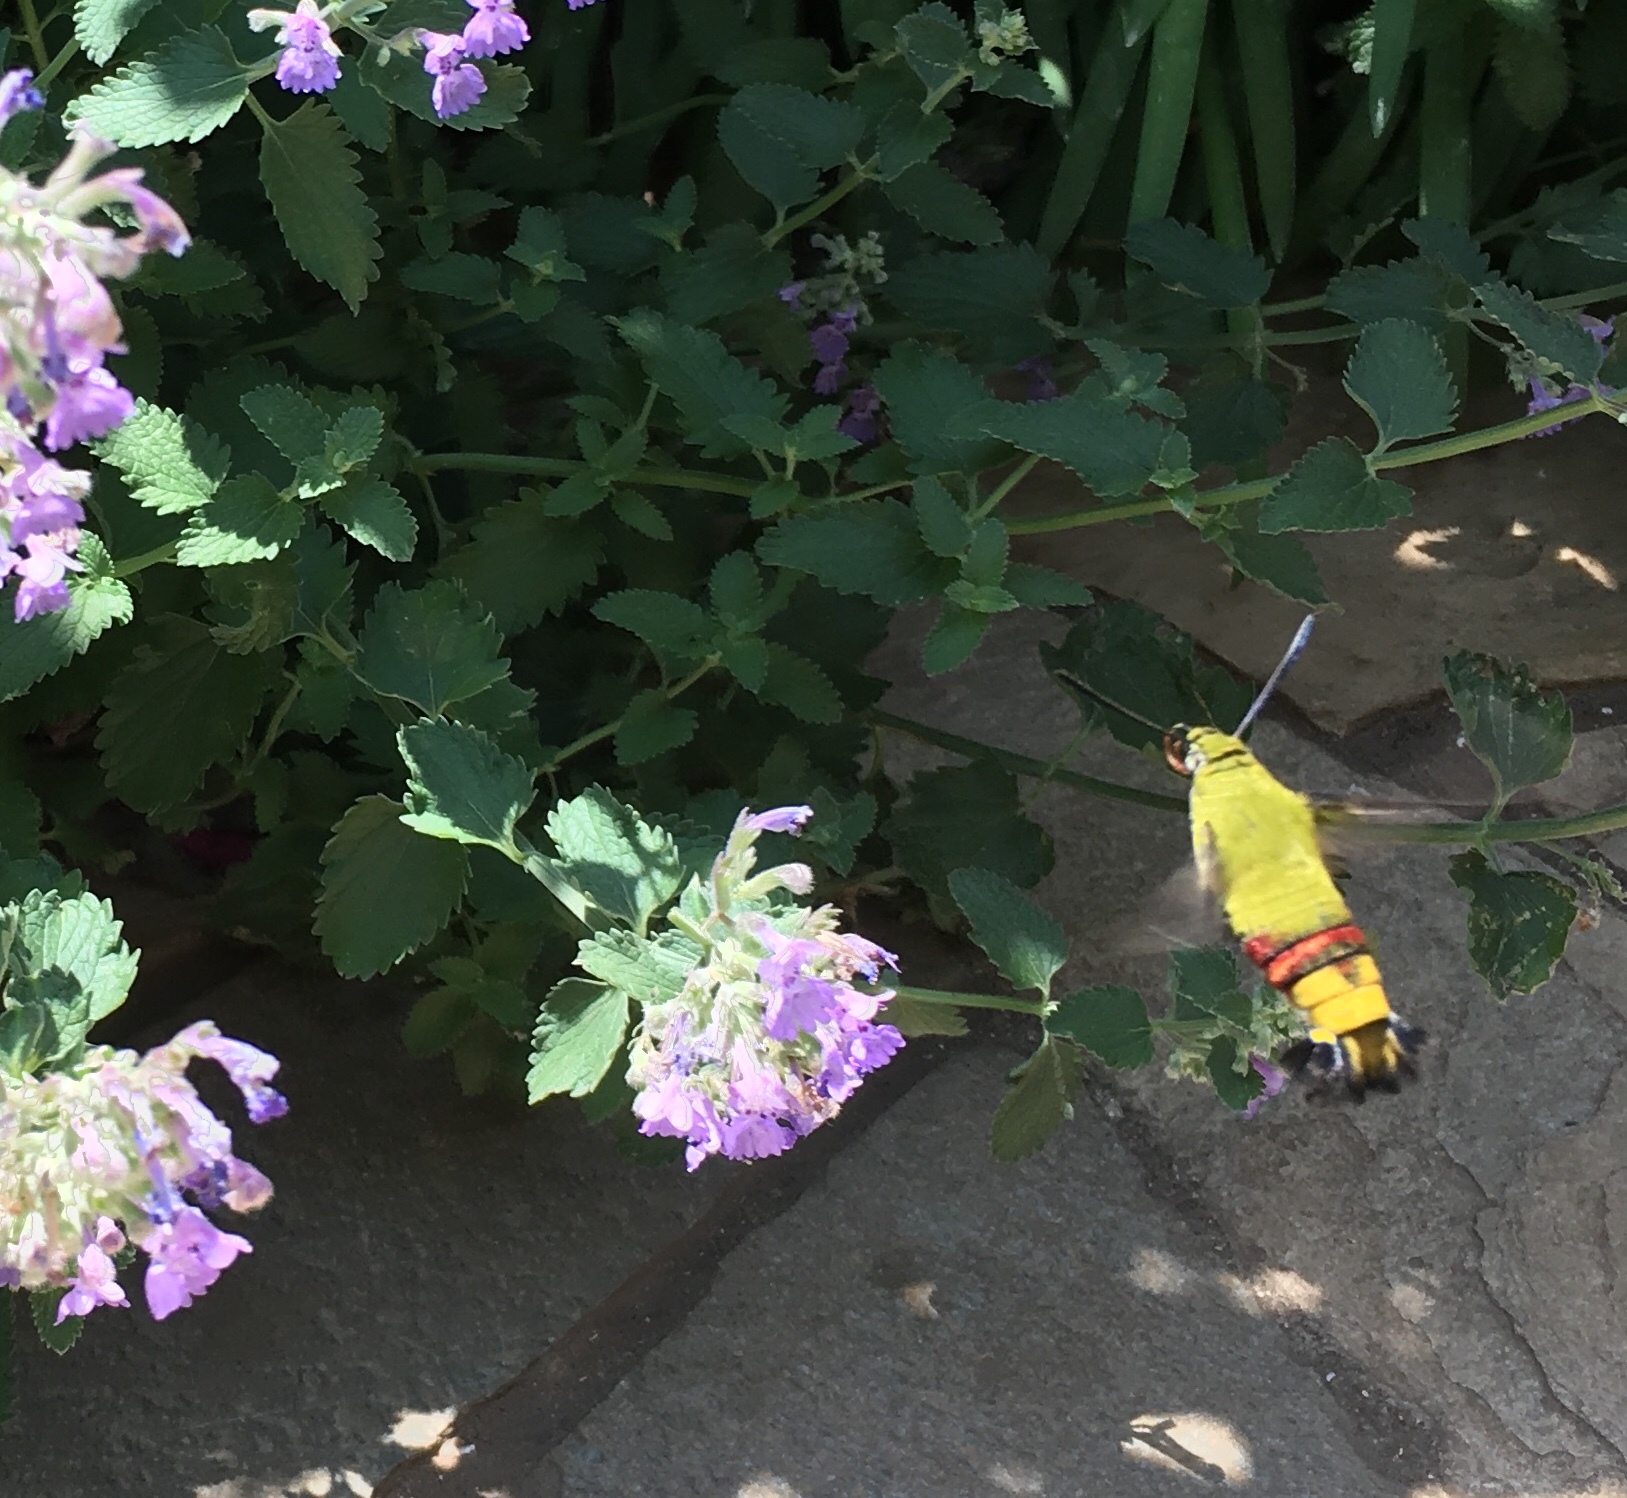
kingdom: Animalia
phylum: Arthropoda
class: Insecta
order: Lepidoptera
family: Sphingidae
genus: Cephonodes
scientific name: Cephonodes hylas
